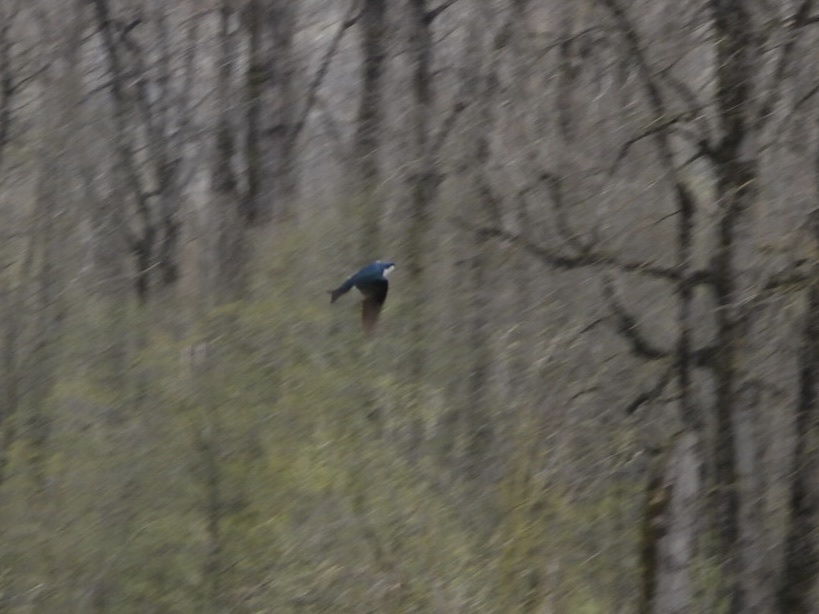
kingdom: Animalia
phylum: Chordata
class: Aves
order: Passeriformes
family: Hirundinidae
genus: Tachycineta
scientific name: Tachycineta bicolor
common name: Tree swallow
